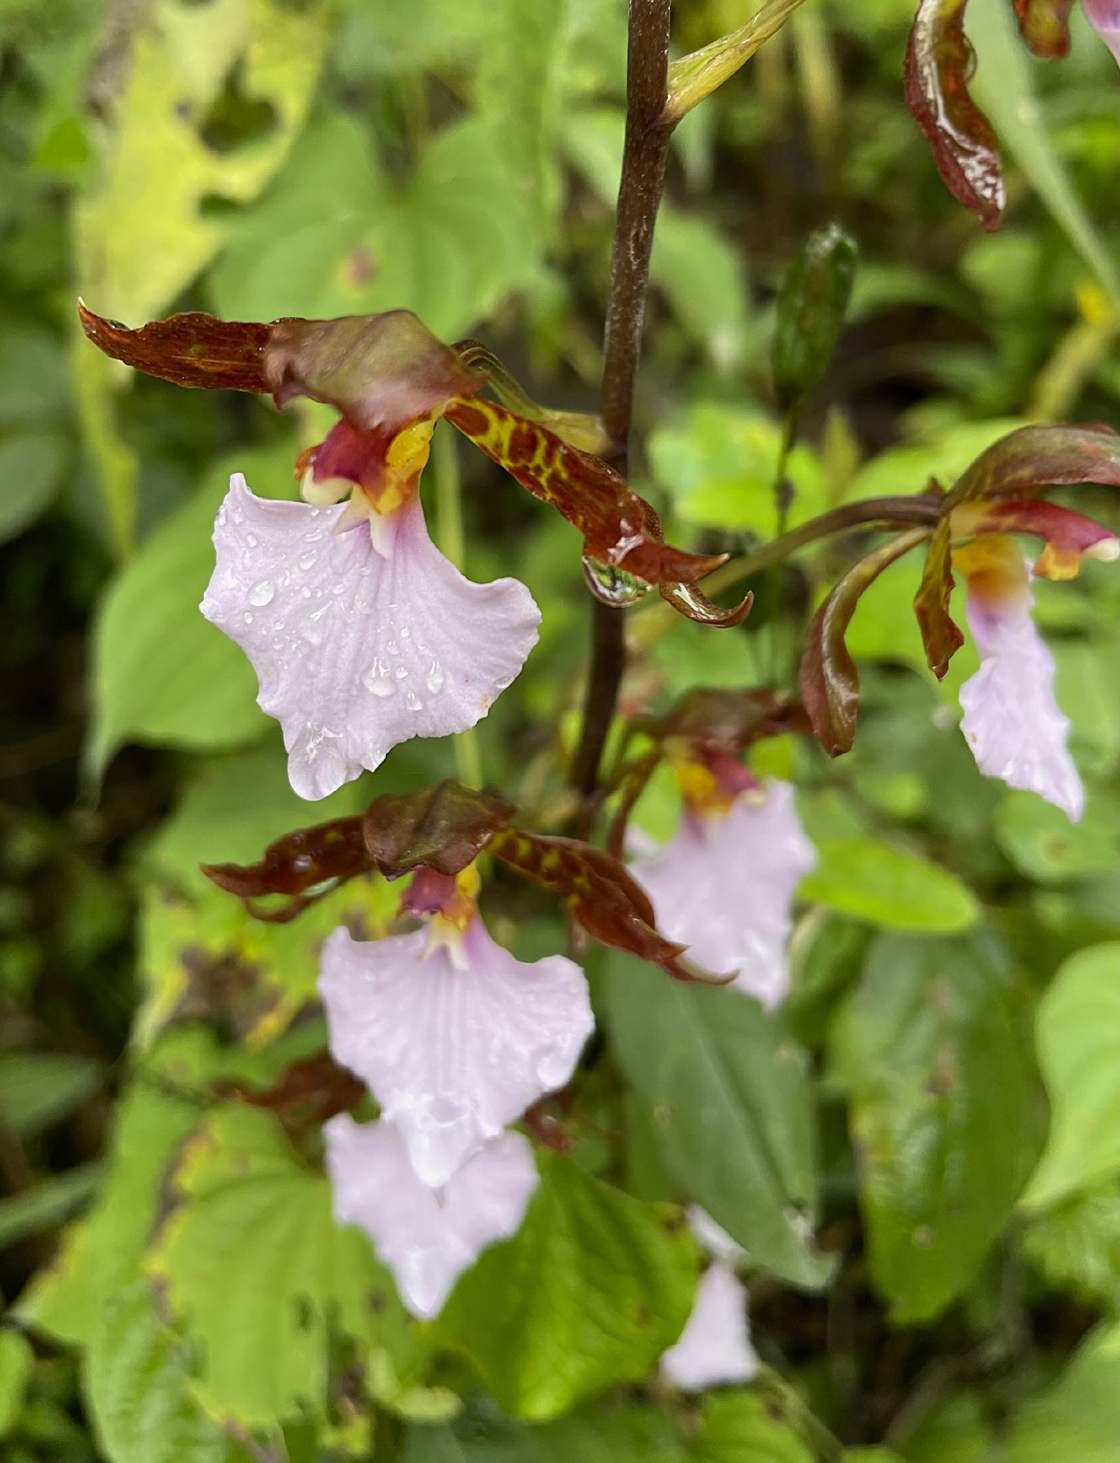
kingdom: Plantae
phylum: Tracheophyta
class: Liliopsida
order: Asparagales
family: Orchidaceae
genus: Rhynchostele
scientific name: Rhynchostele bictoniensis
